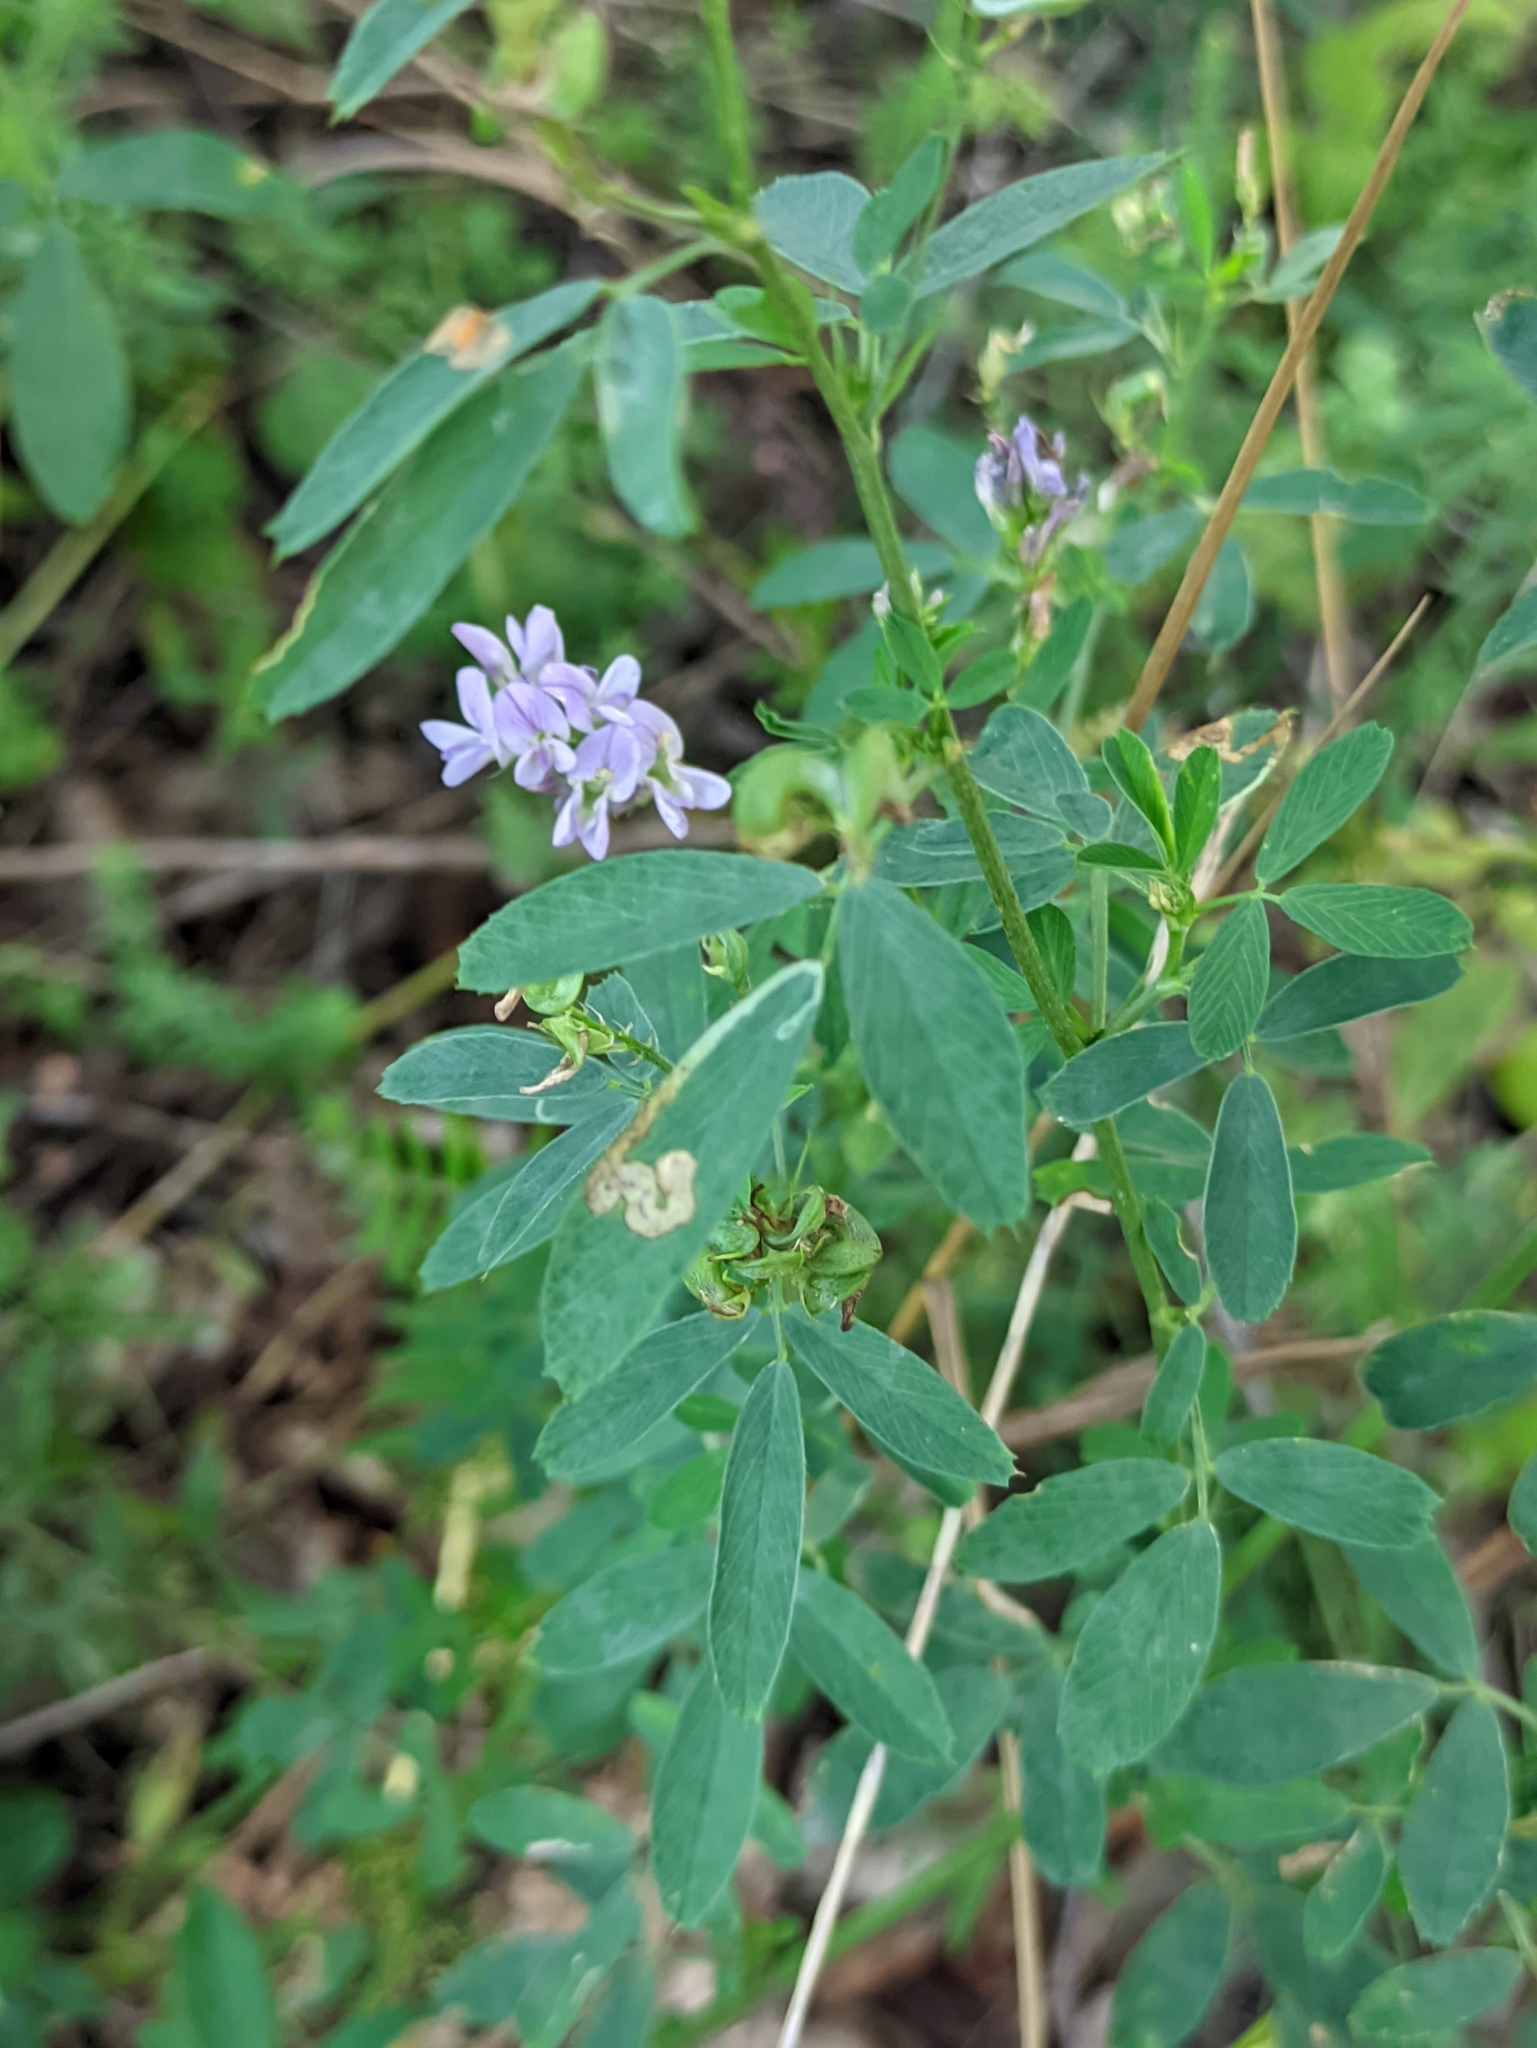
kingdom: Plantae
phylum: Tracheophyta
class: Magnoliopsida
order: Fabales
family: Fabaceae
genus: Medicago
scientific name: Medicago sativa
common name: Alfalfa
